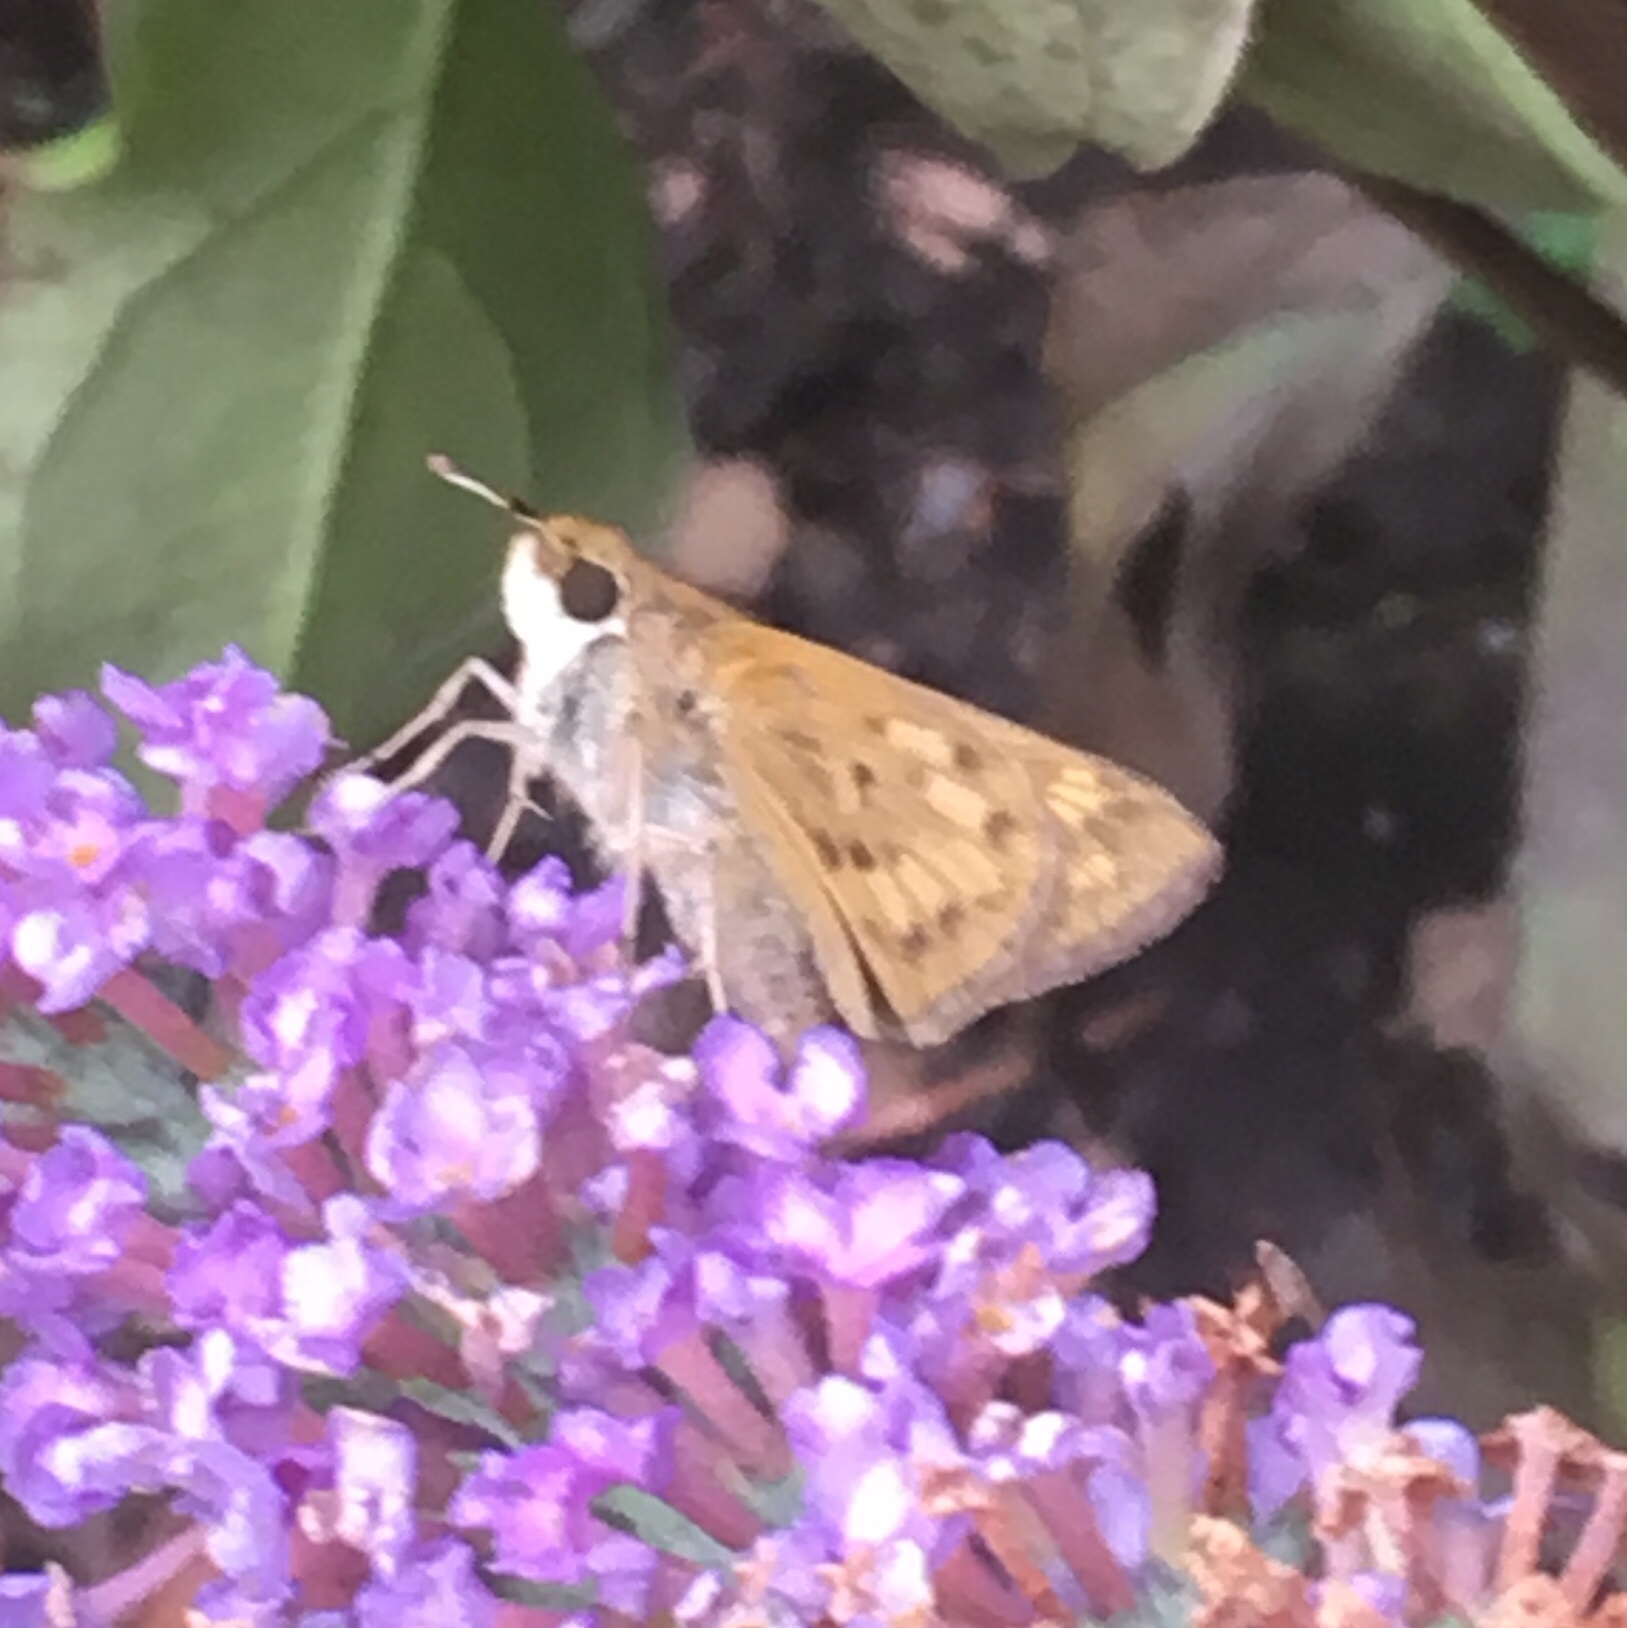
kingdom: Animalia
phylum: Arthropoda
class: Insecta
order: Lepidoptera
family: Hesperiidae
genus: Hylephila
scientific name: Hylephila phyleus
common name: Fiery skipper
